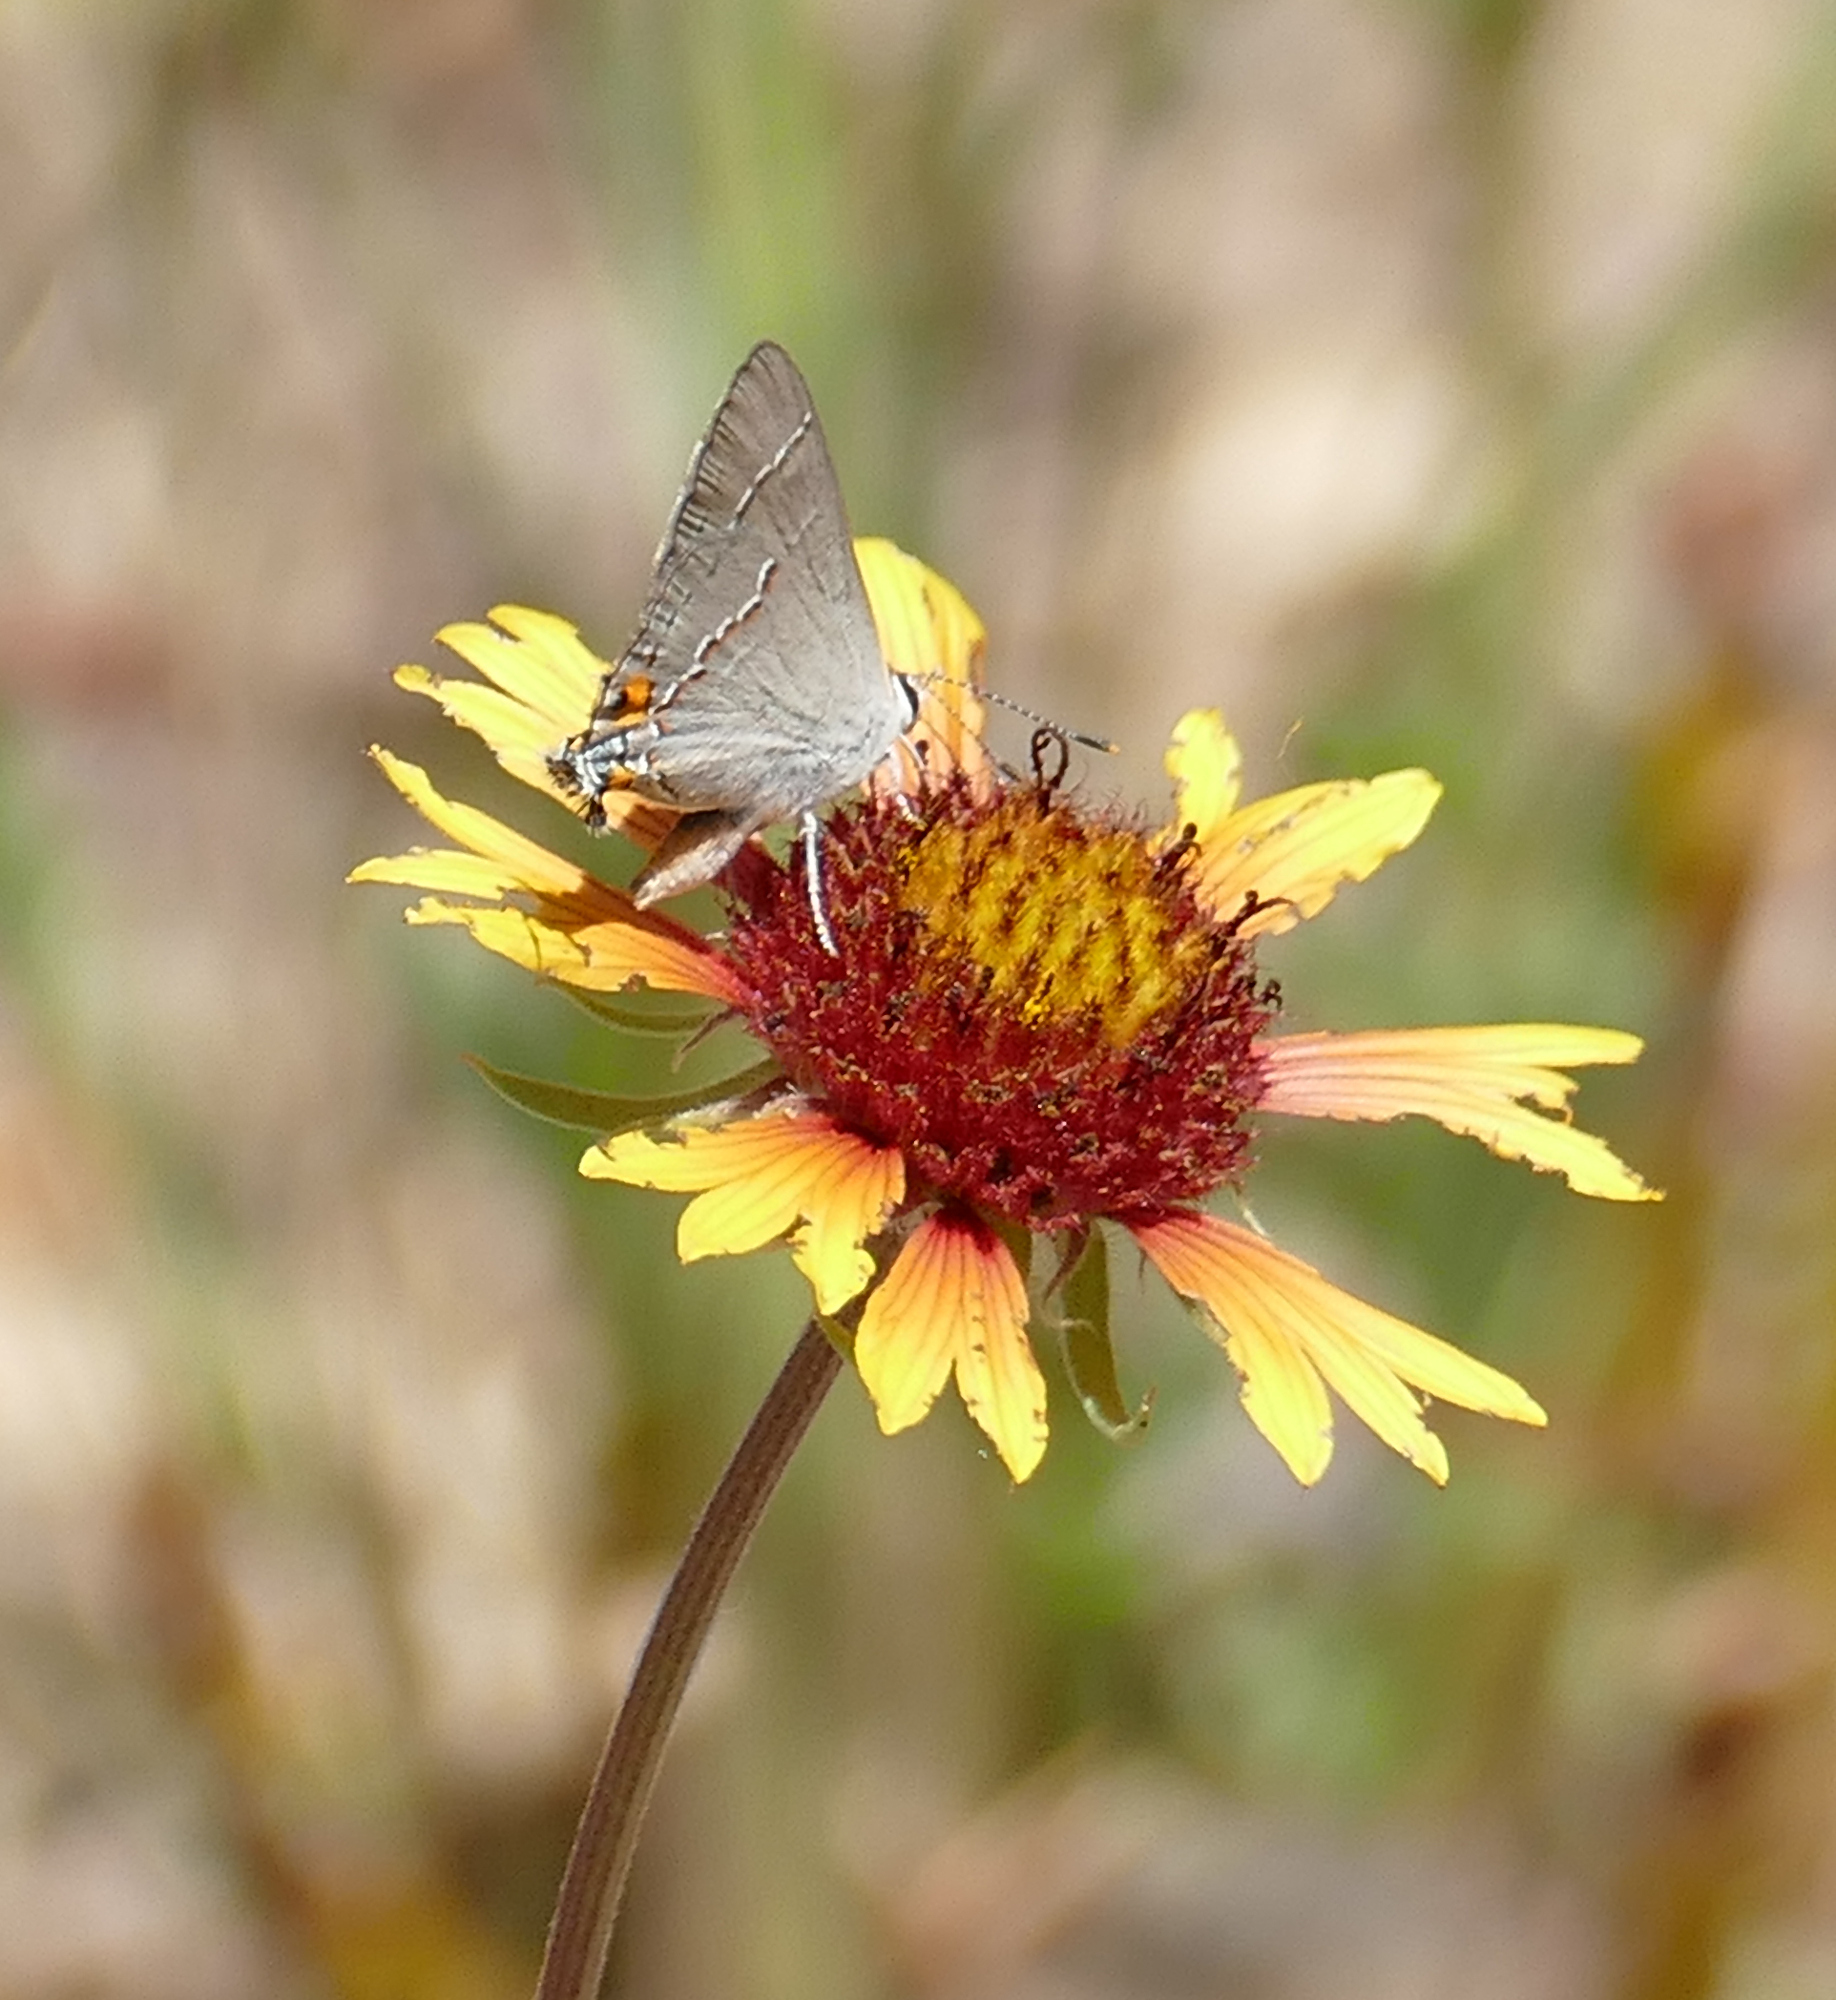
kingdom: Animalia
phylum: Arthropoda
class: Insecta
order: Lepidoptera
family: Lycaenidae
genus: Strymon
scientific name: Strymon melinus
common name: Gray hairstreak
